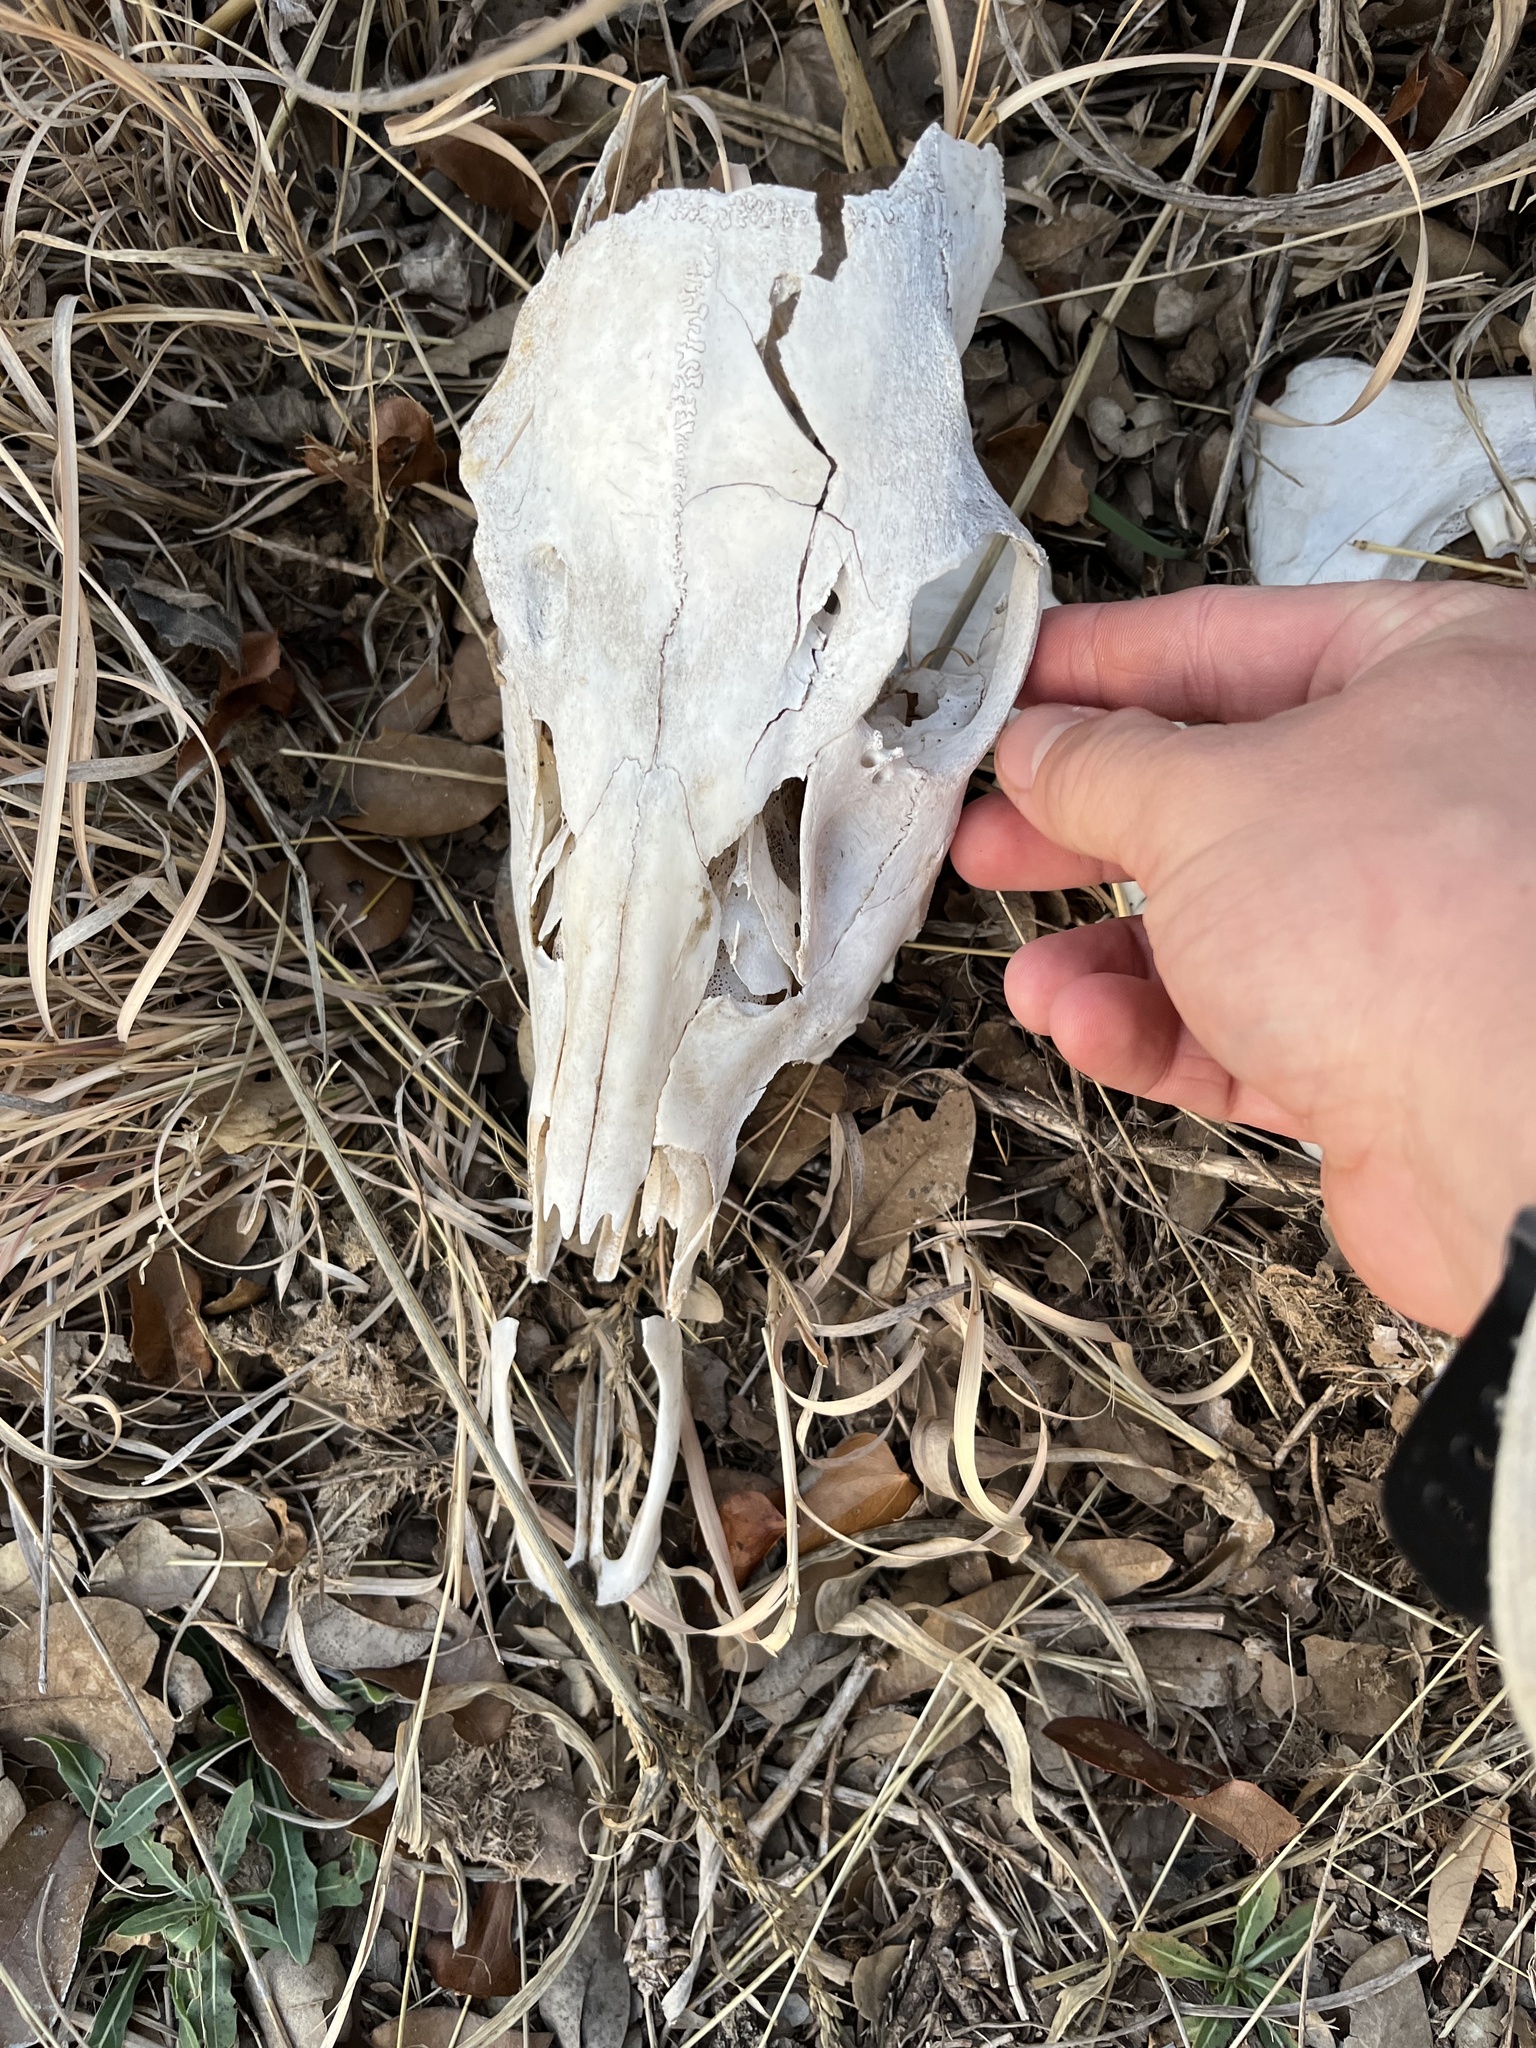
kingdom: Animalia
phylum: Chordata
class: Mammalia
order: Artiodactyla
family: Cervidae
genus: Odocoileus
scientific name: Odocoileus virginianus
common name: White-tailed deer
